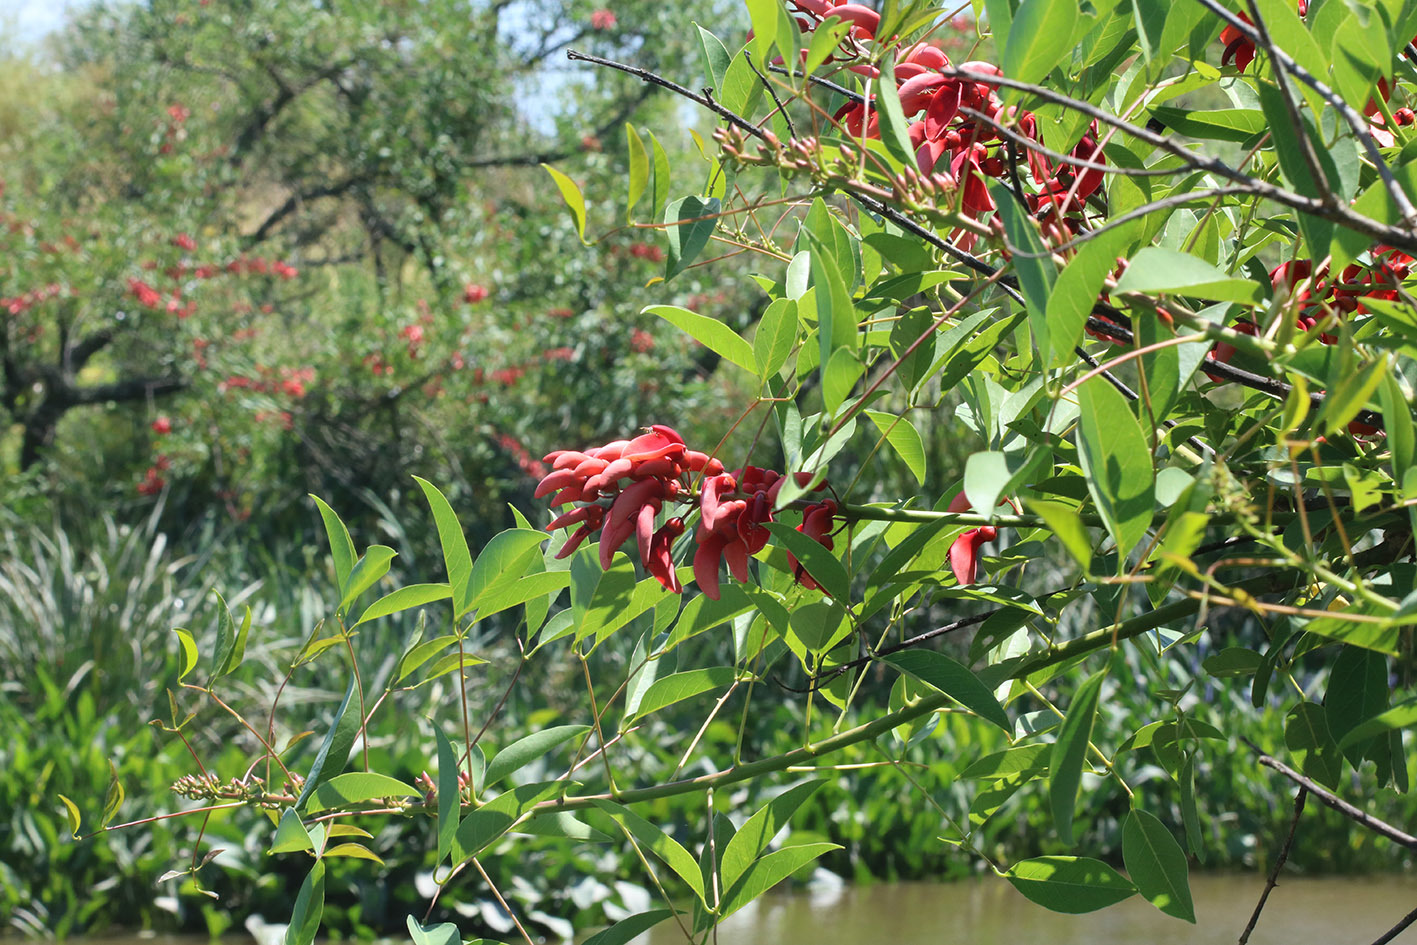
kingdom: Plantae
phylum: Tracheophyta
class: Magnoliopsida
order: Fabales
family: Fabaceae
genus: Erythrina
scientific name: Erythrina crista-galli
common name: Cockspur coral tree
